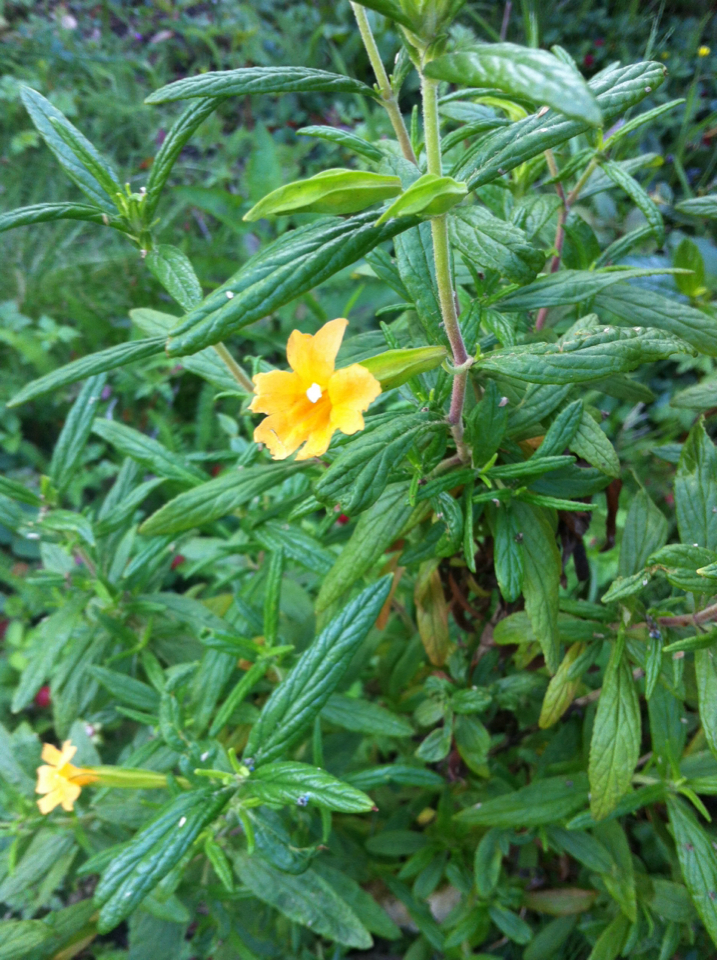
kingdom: Plantae
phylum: Tracheophyta
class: Magnoliopsida
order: Lamiales
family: Phrymaceae
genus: Diplacus
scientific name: Diplacus aurantiacus
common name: Bush monkey-flower
